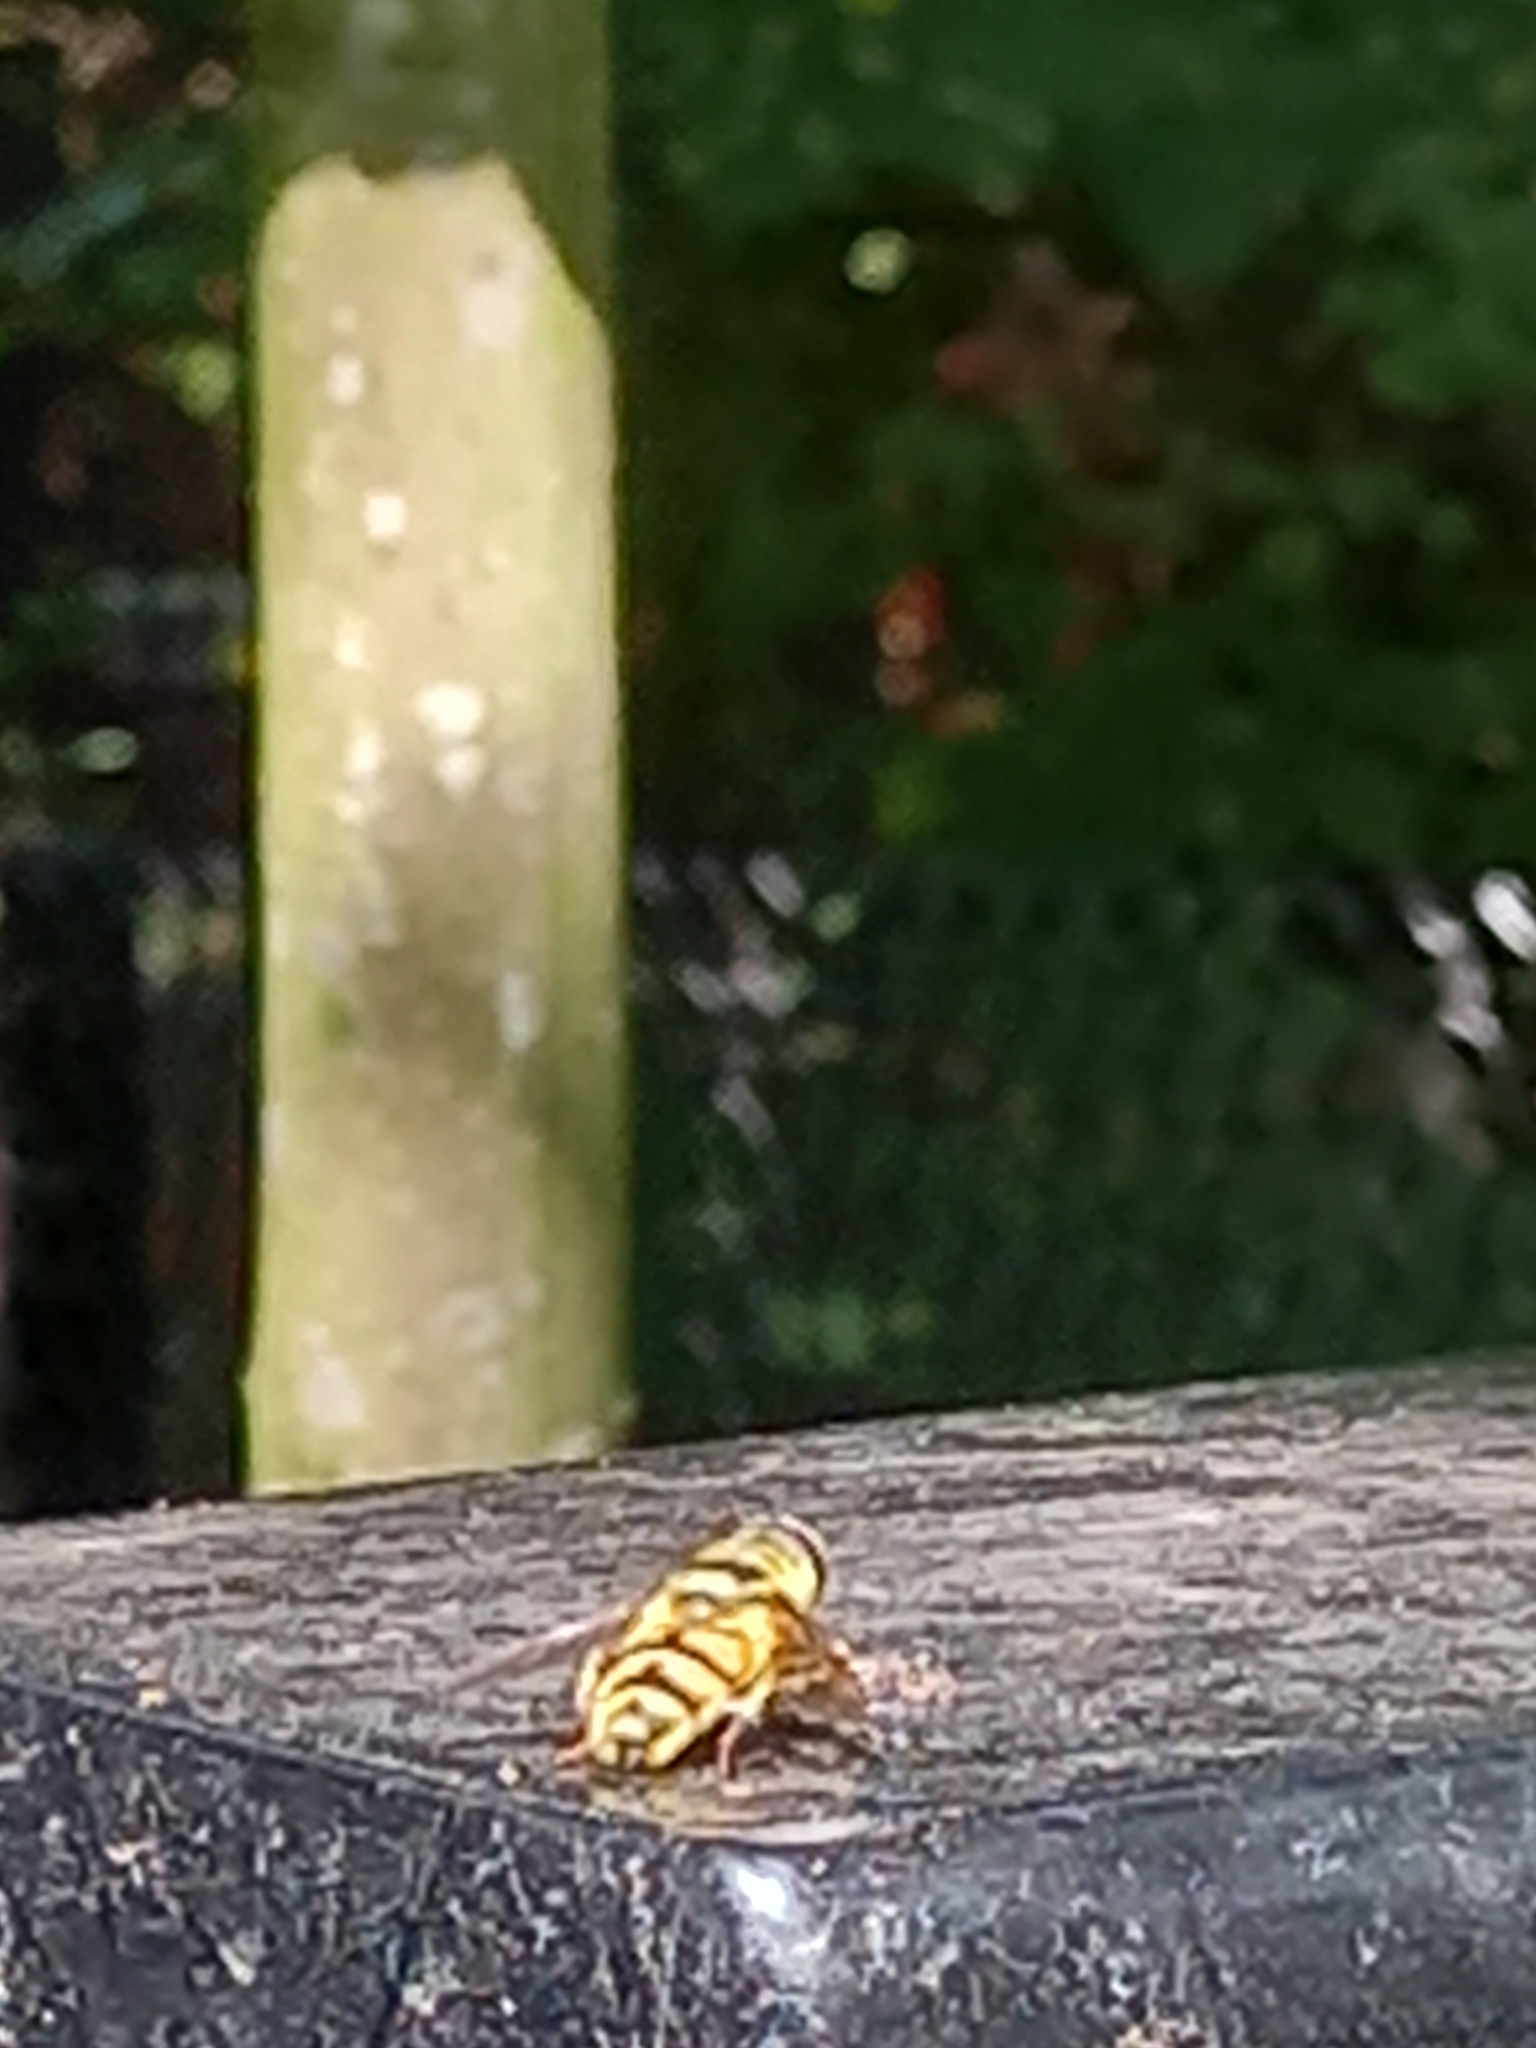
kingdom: Animalia
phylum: Arthropoda
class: Insecta
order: Diptera
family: Syrphidae
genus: Myathropa
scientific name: Myathropa florea
